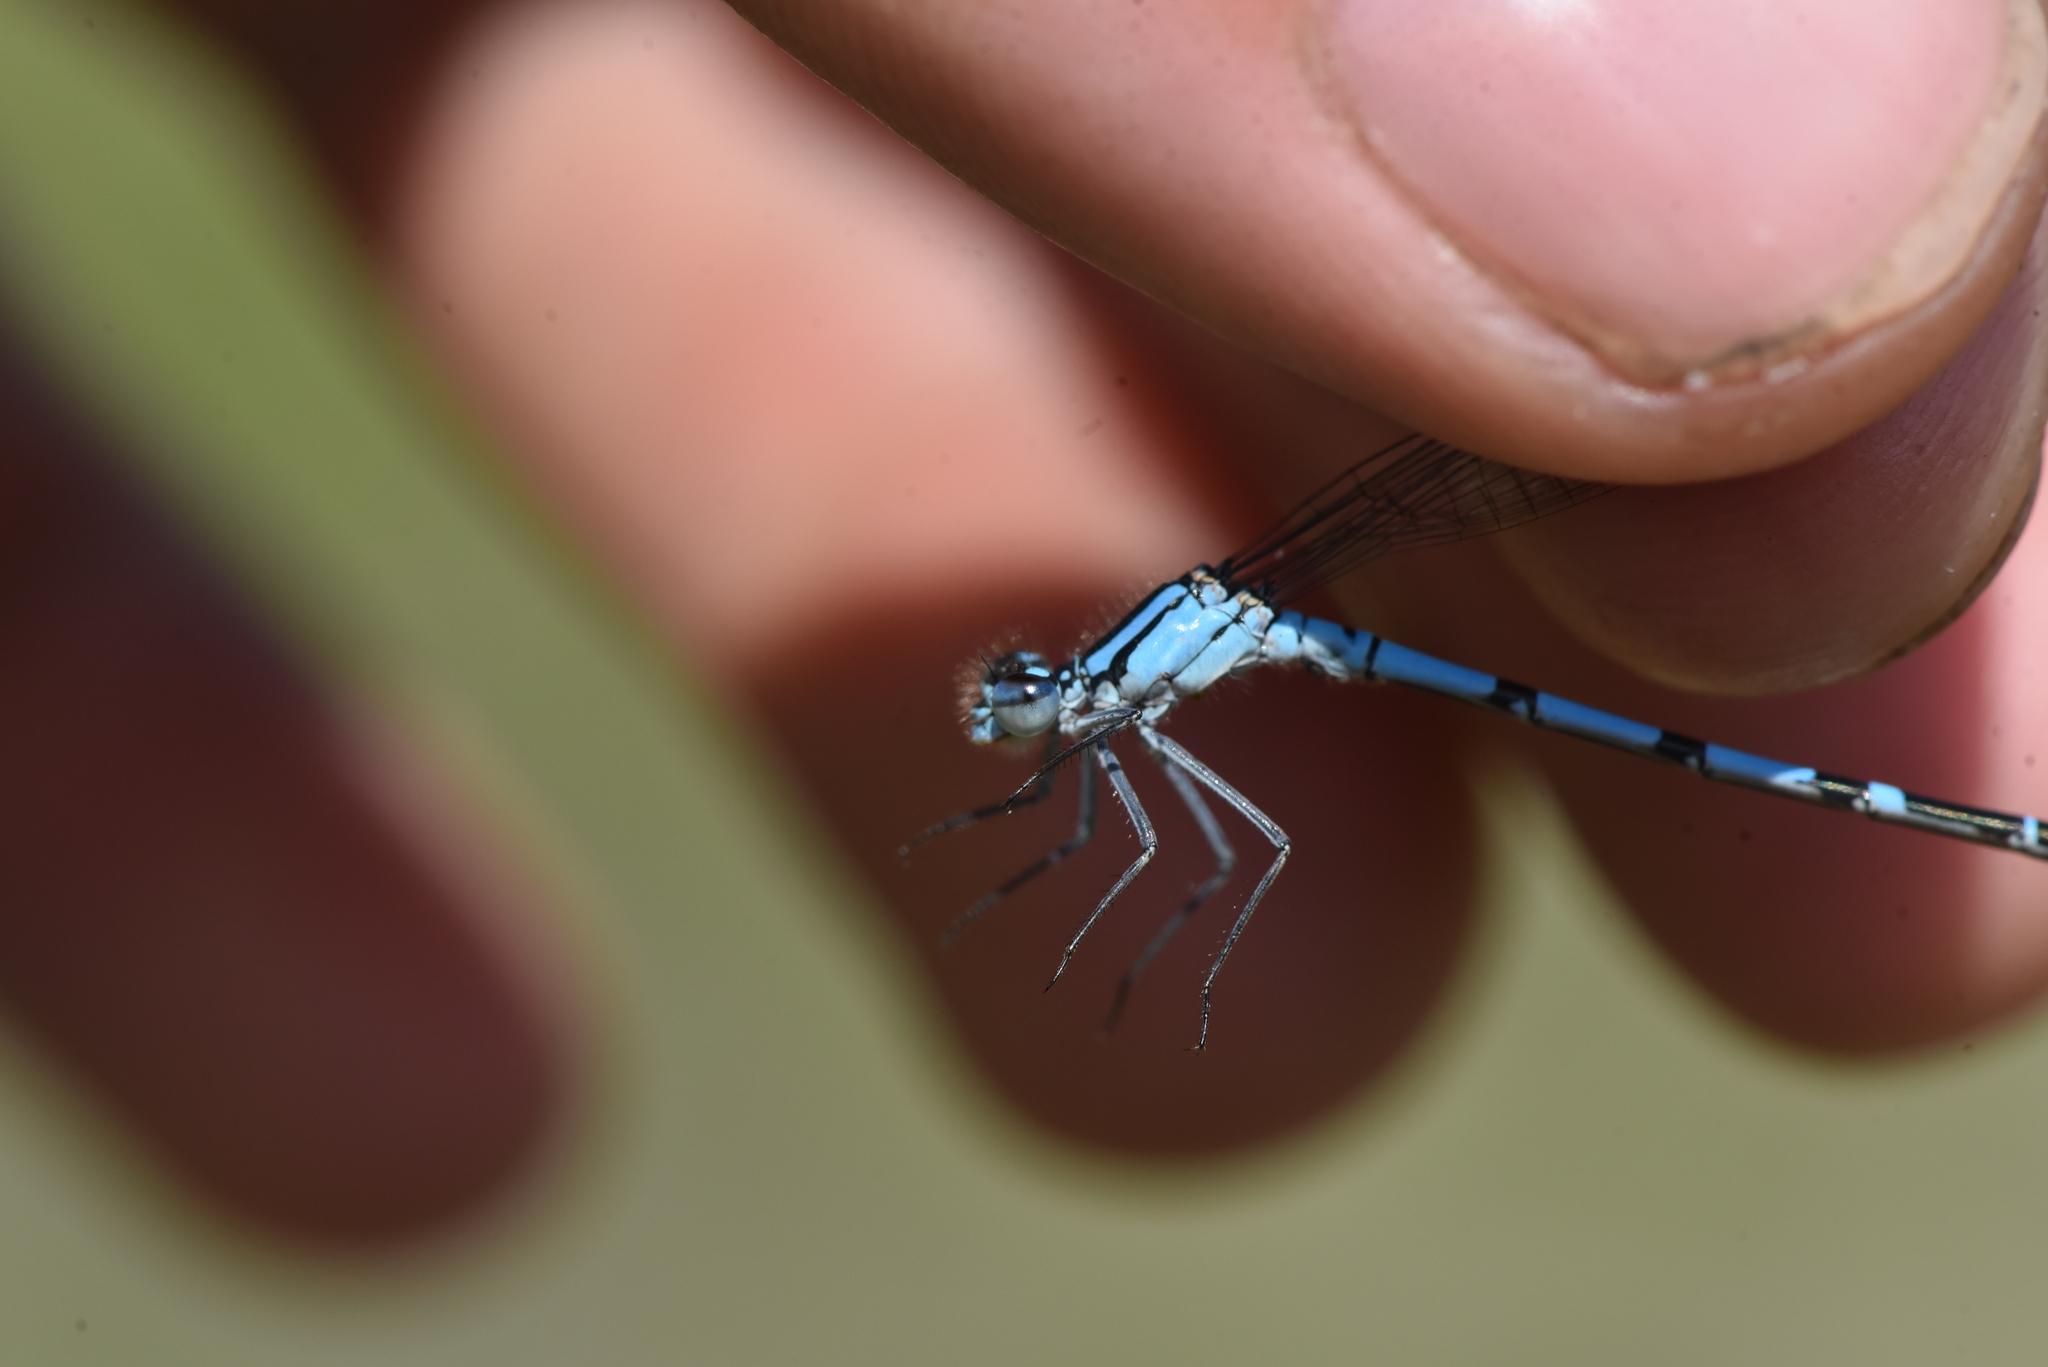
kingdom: Animalia
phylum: Arthropoda
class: Insecta
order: Odonata
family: Coenagrionidae
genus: Enallagma
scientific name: Enallagma annexum
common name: Northern bluet
